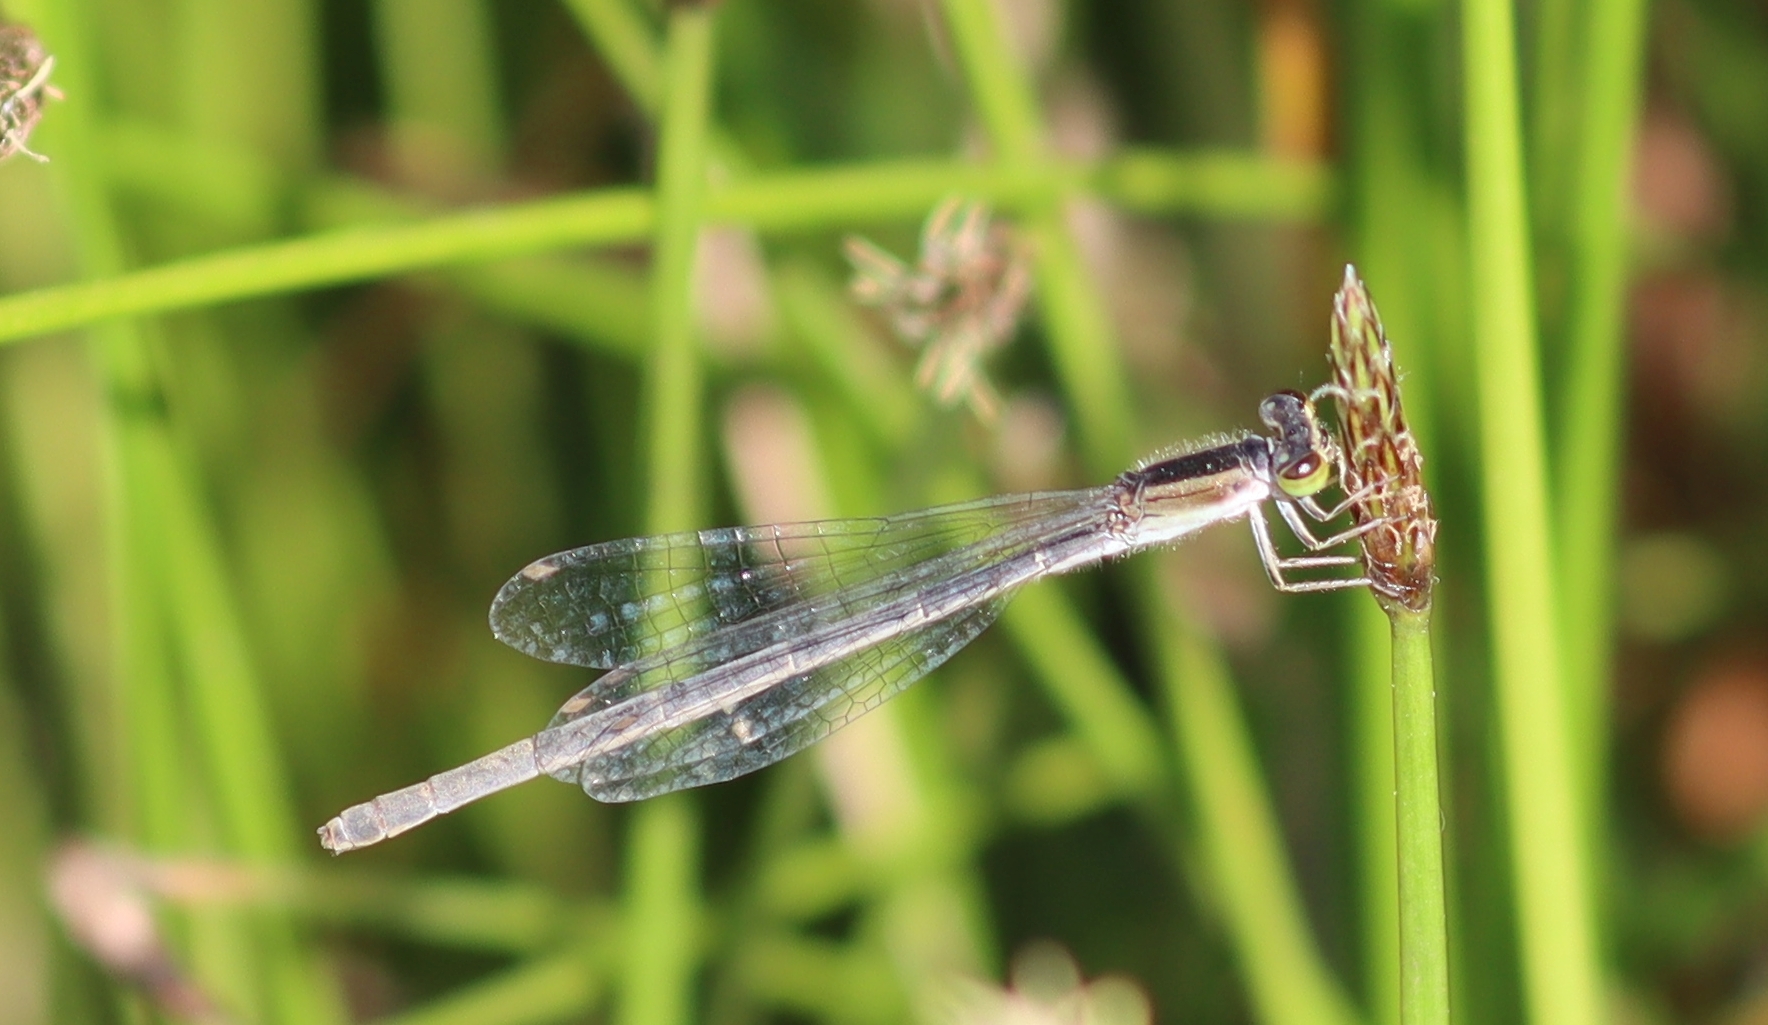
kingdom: Animalia
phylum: Arthropoda
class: Insecta
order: Odonata
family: Coenagrionidae
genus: Ischnura
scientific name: Ischnura hastata
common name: Citrine forktail
